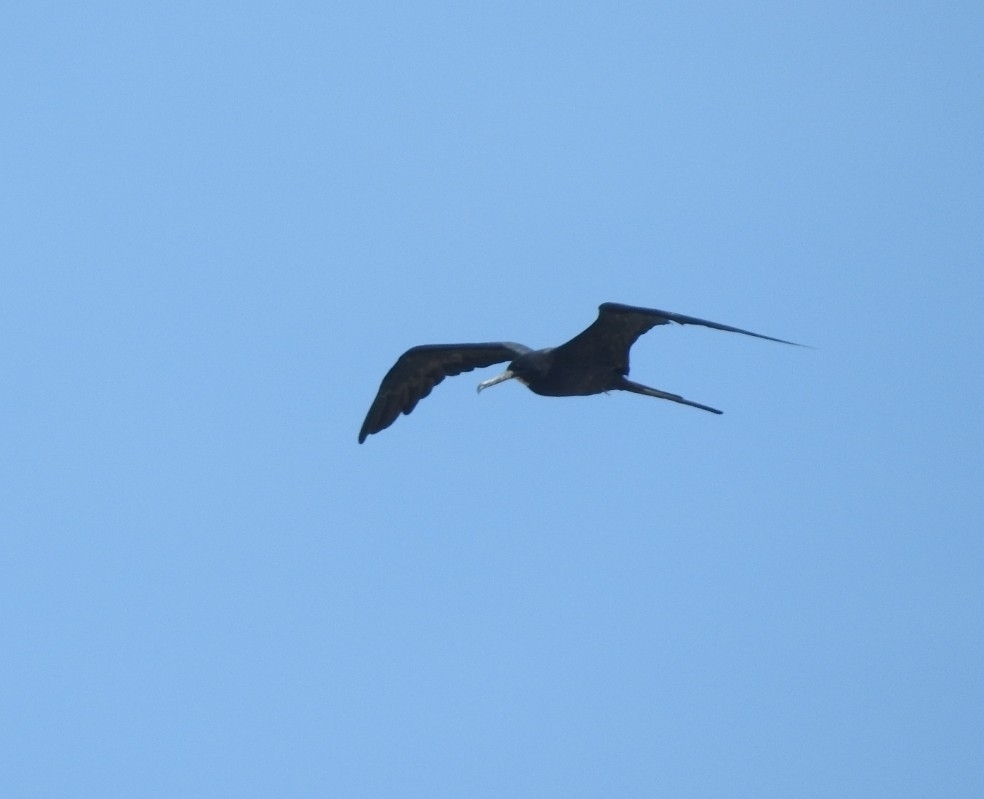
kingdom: Animalia
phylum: Chordata
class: Aves
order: Suliformes
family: Fregatidae
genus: Fregata
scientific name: Fregata magnificens
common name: Magnificent frigatebird
